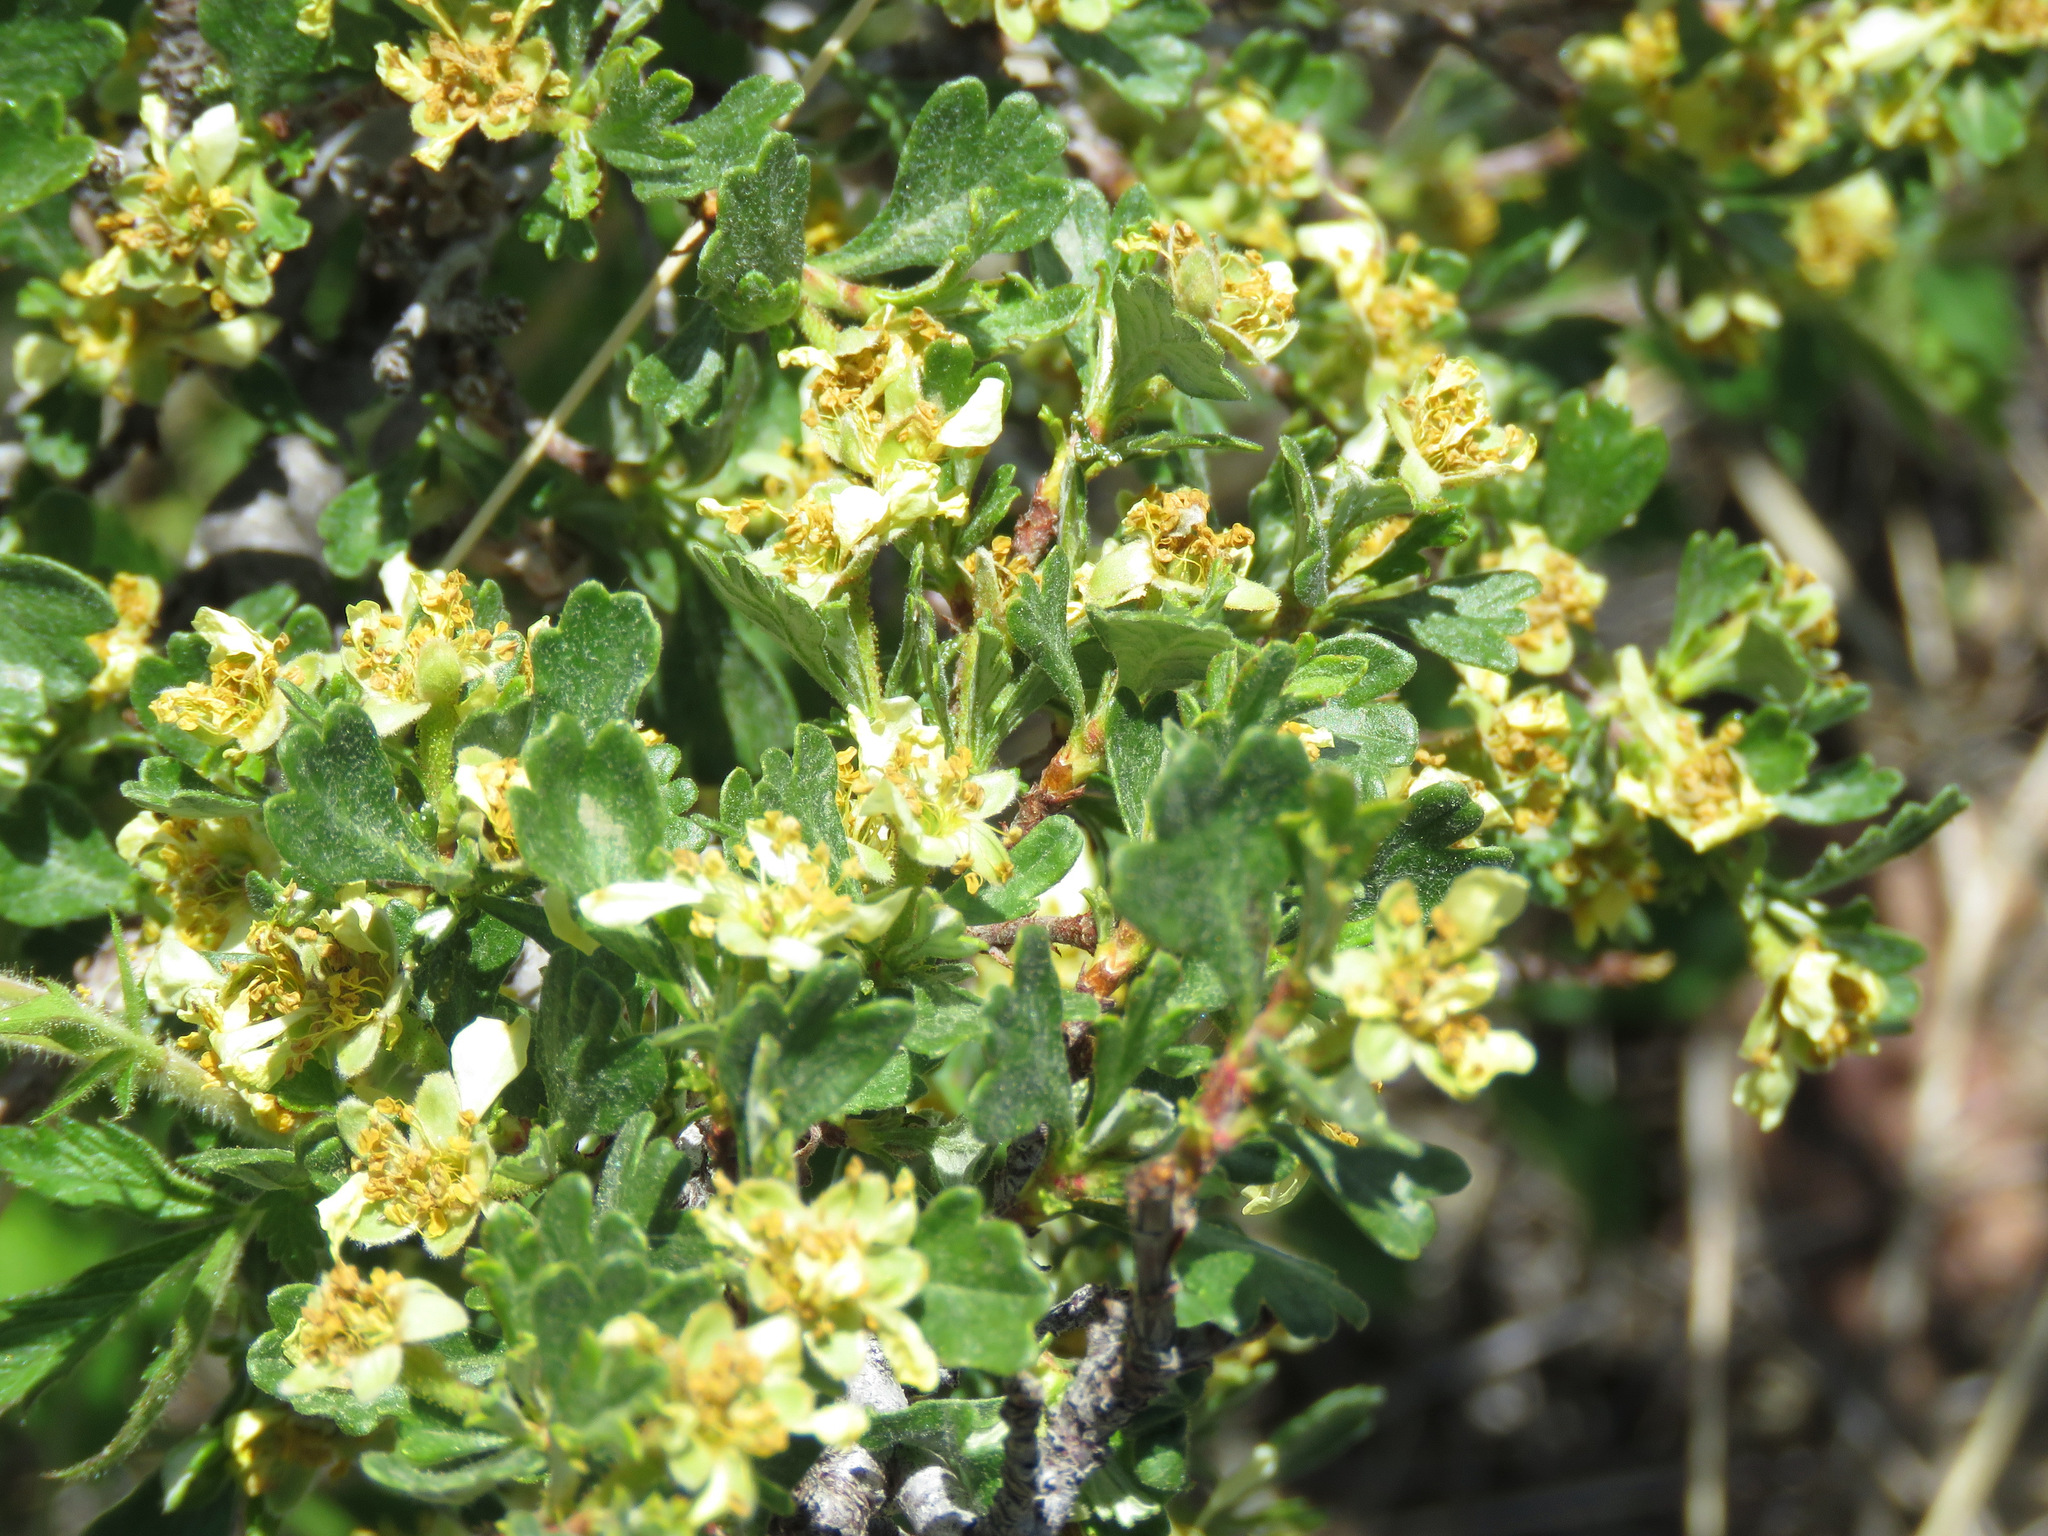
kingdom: Plantae
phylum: Tracheophyta
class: Magnoliopsida
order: Rosales
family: Rosaceae
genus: Purshia
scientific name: Purshia tridentata
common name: Antelope bitterbrush
